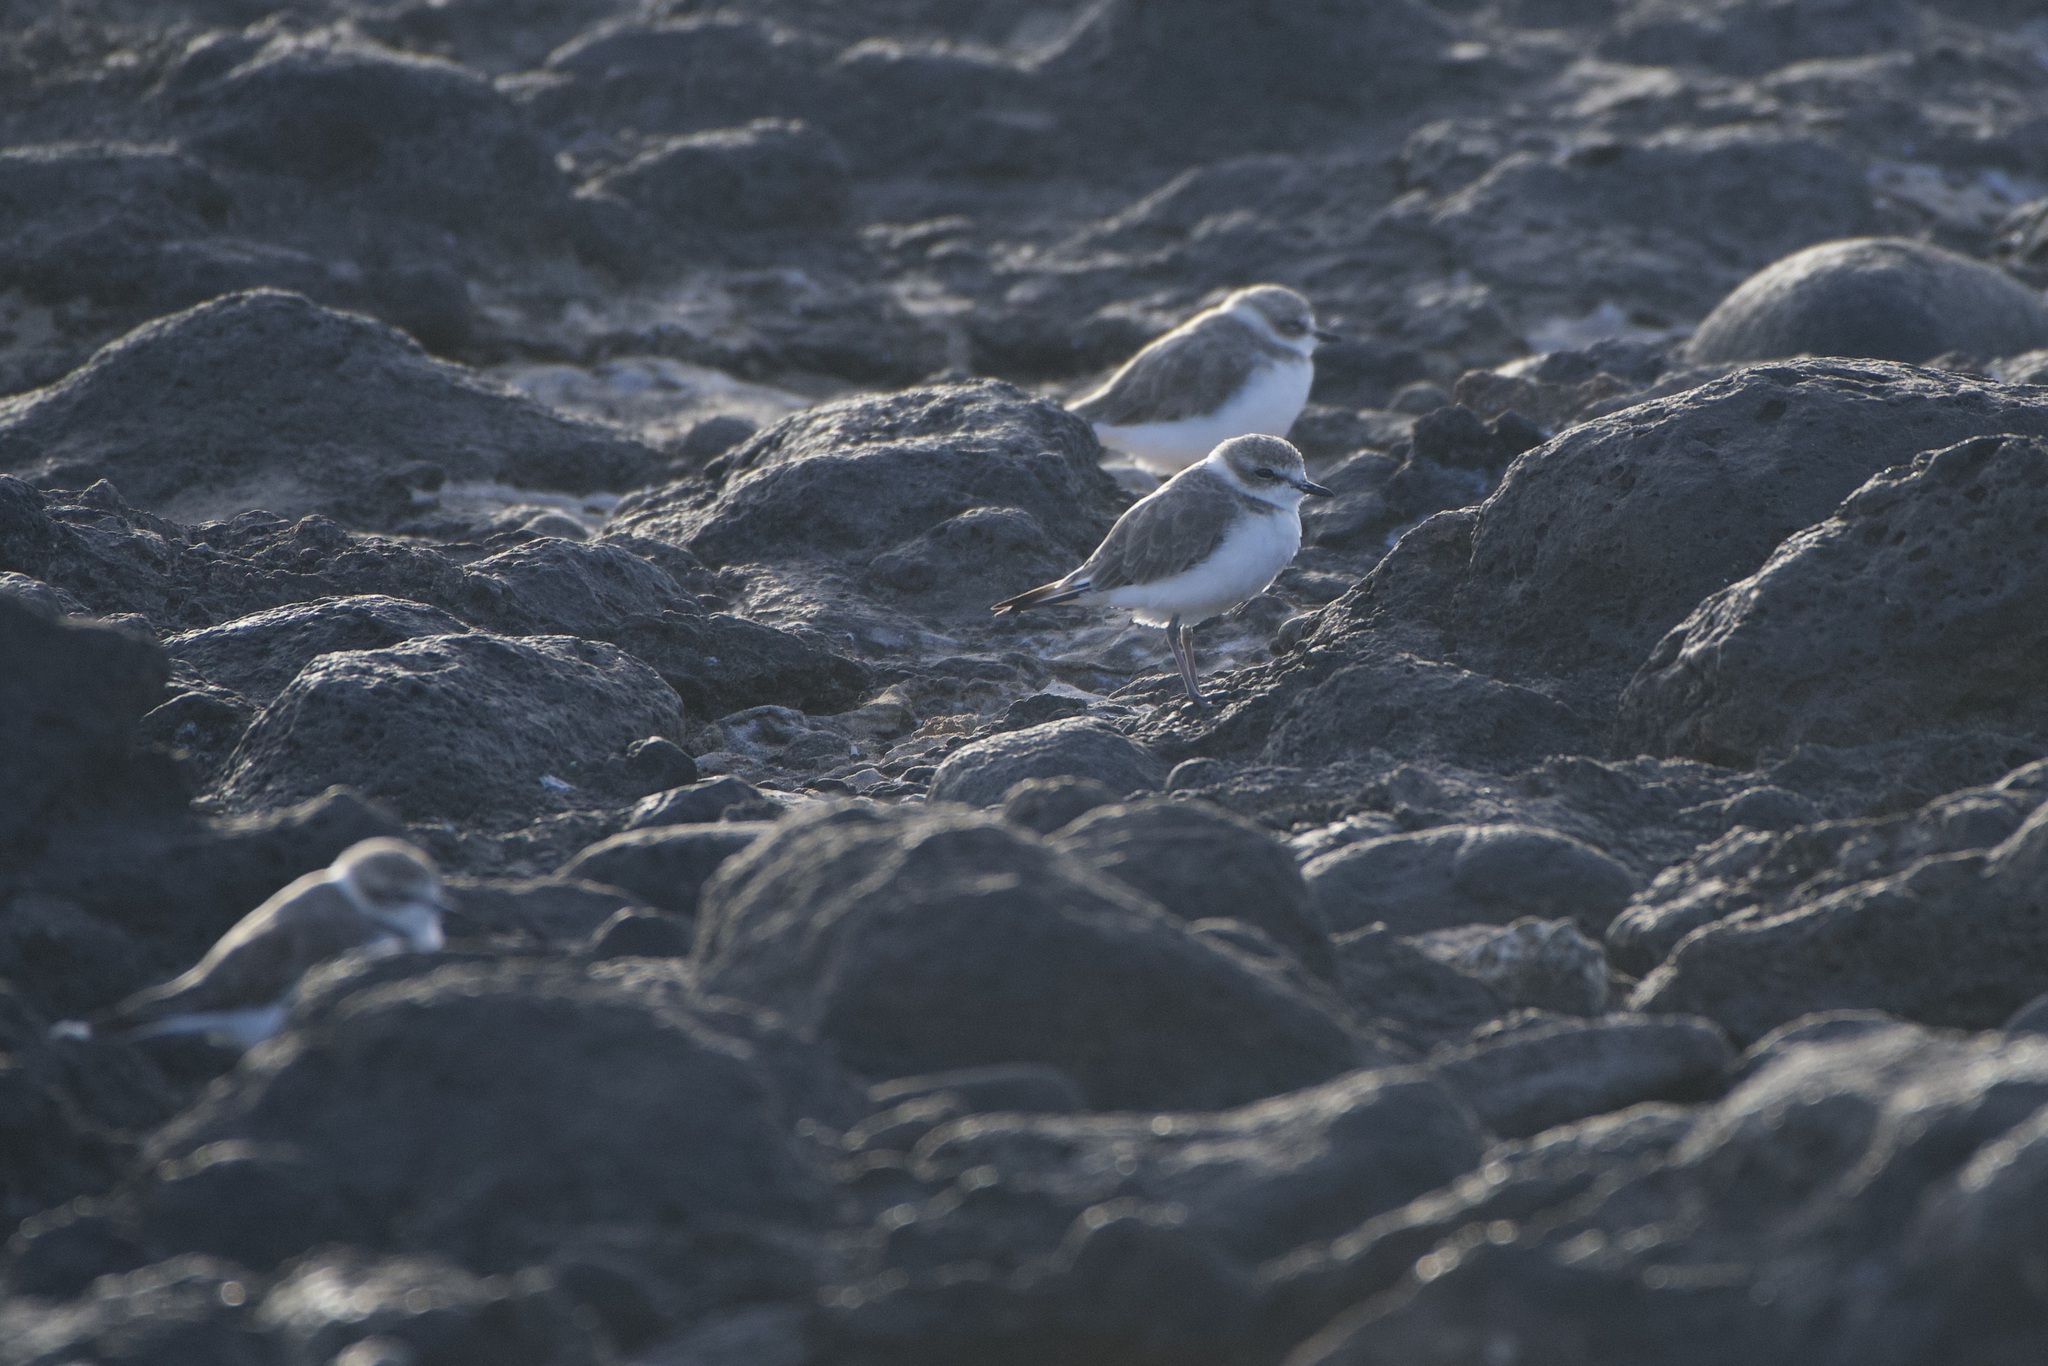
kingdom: Animalia
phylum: Chordata
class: Aves
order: Charadriiformes
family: Charadriidae
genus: Charadrius
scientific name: Charadrius alexandrinus
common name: Kentish plover
